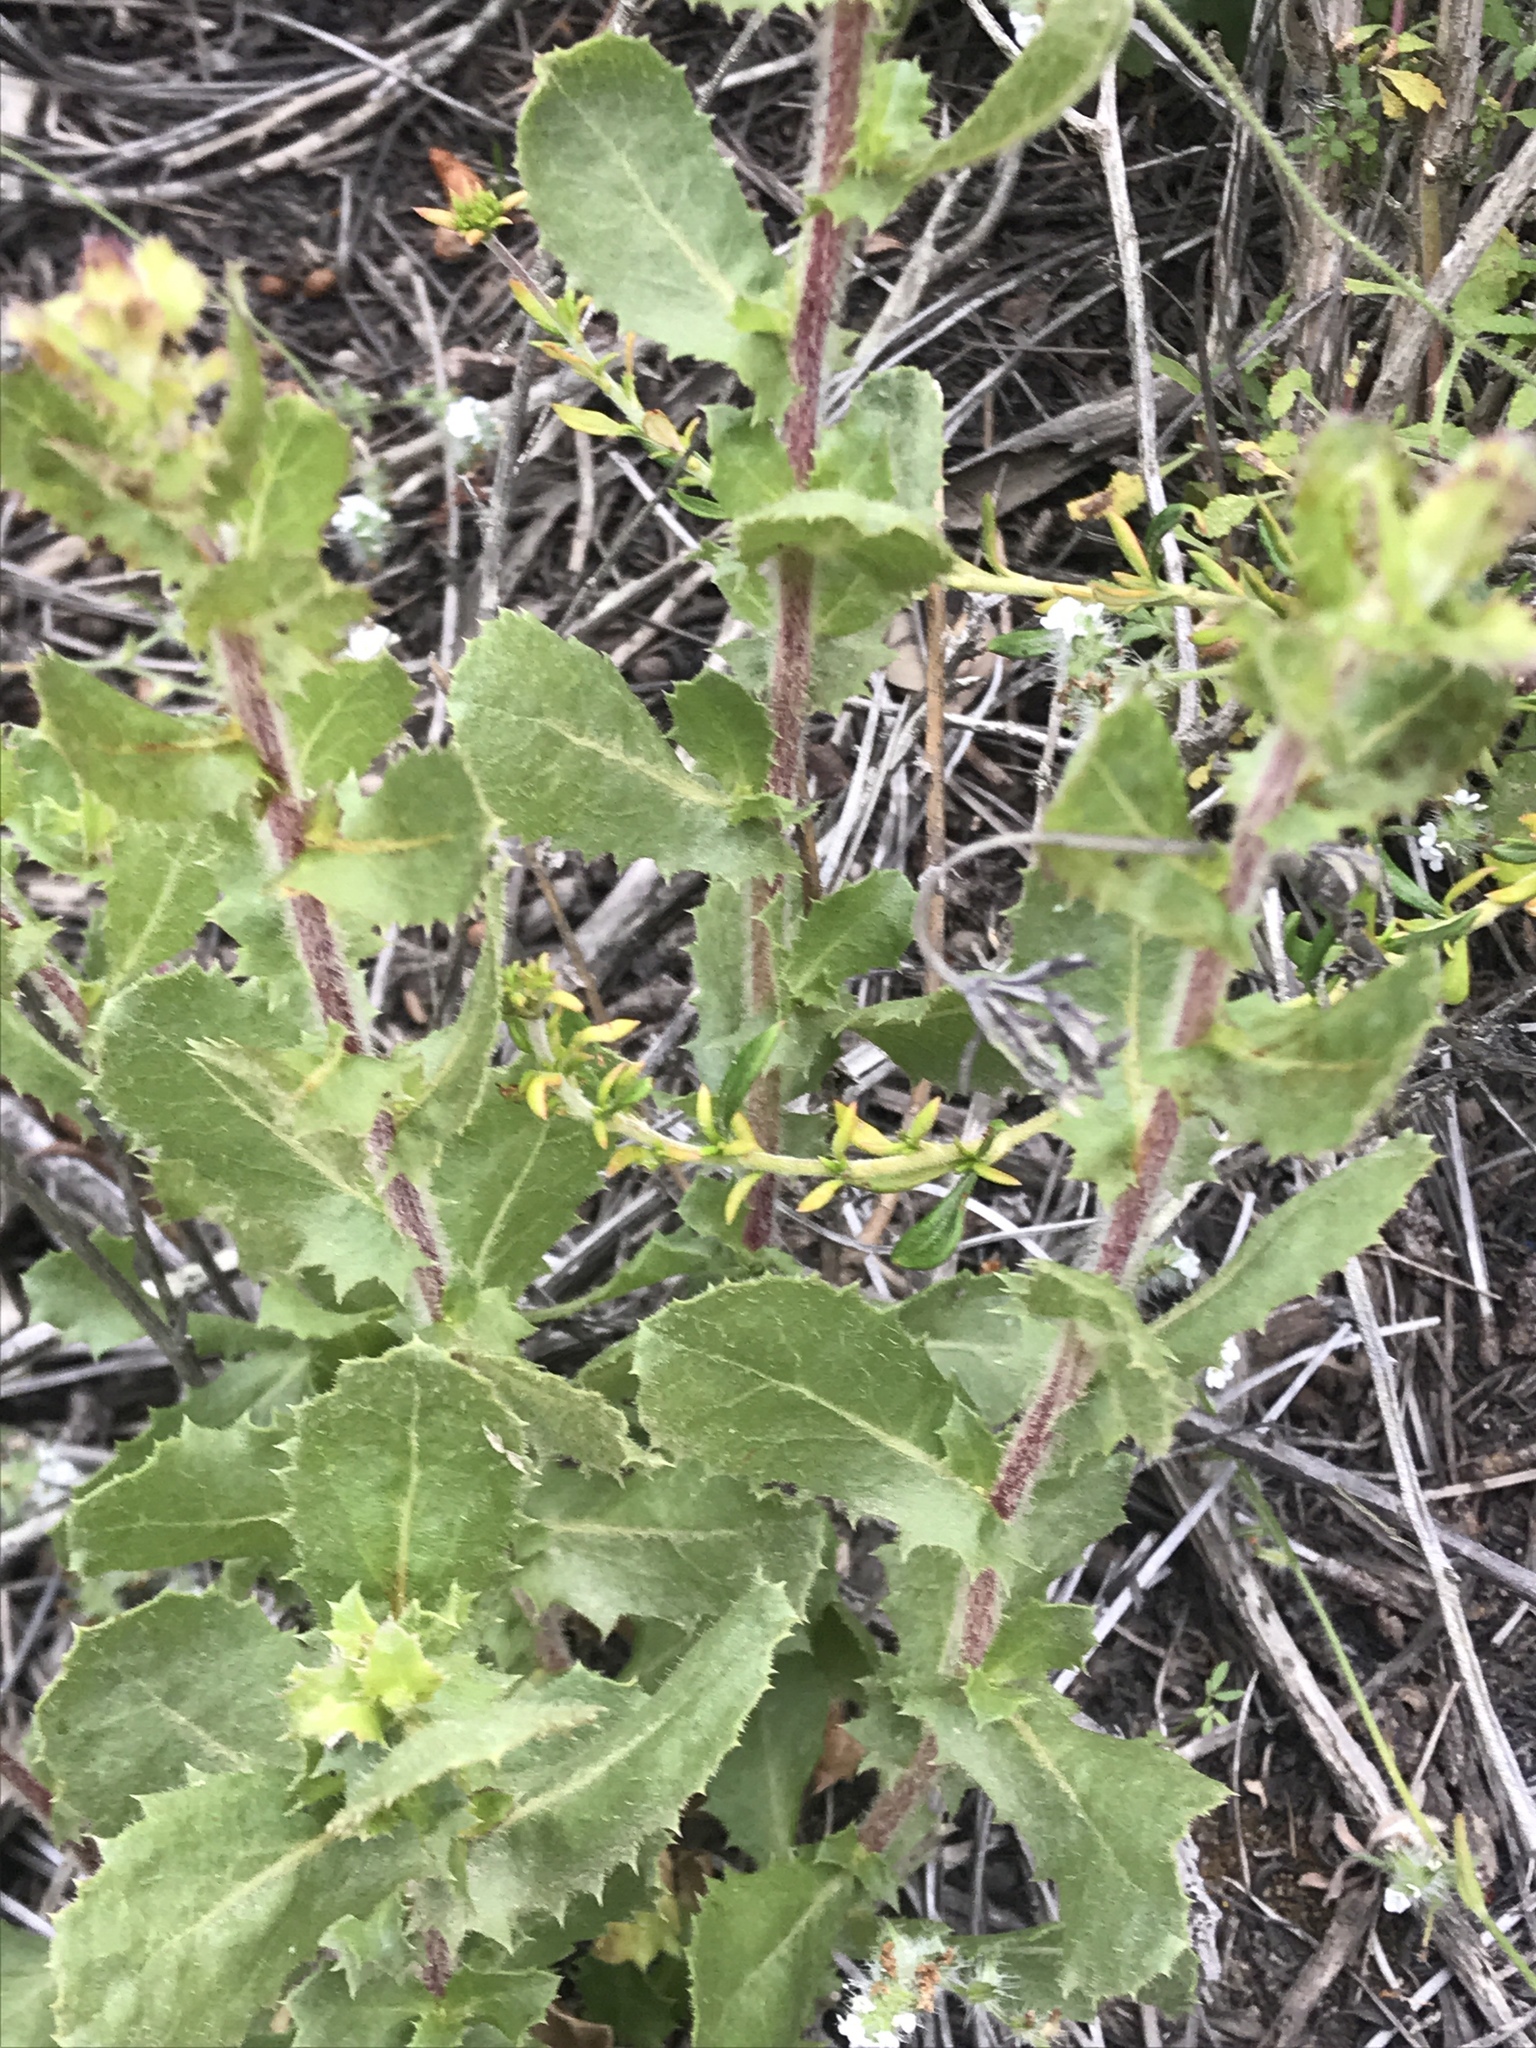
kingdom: Plantae
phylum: Tracheophyta
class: Magnoliopsida
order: Asterales
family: Asteraceae
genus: Hazardia
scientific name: Hazardia squarrosa
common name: Saw-tooth goldenbush
